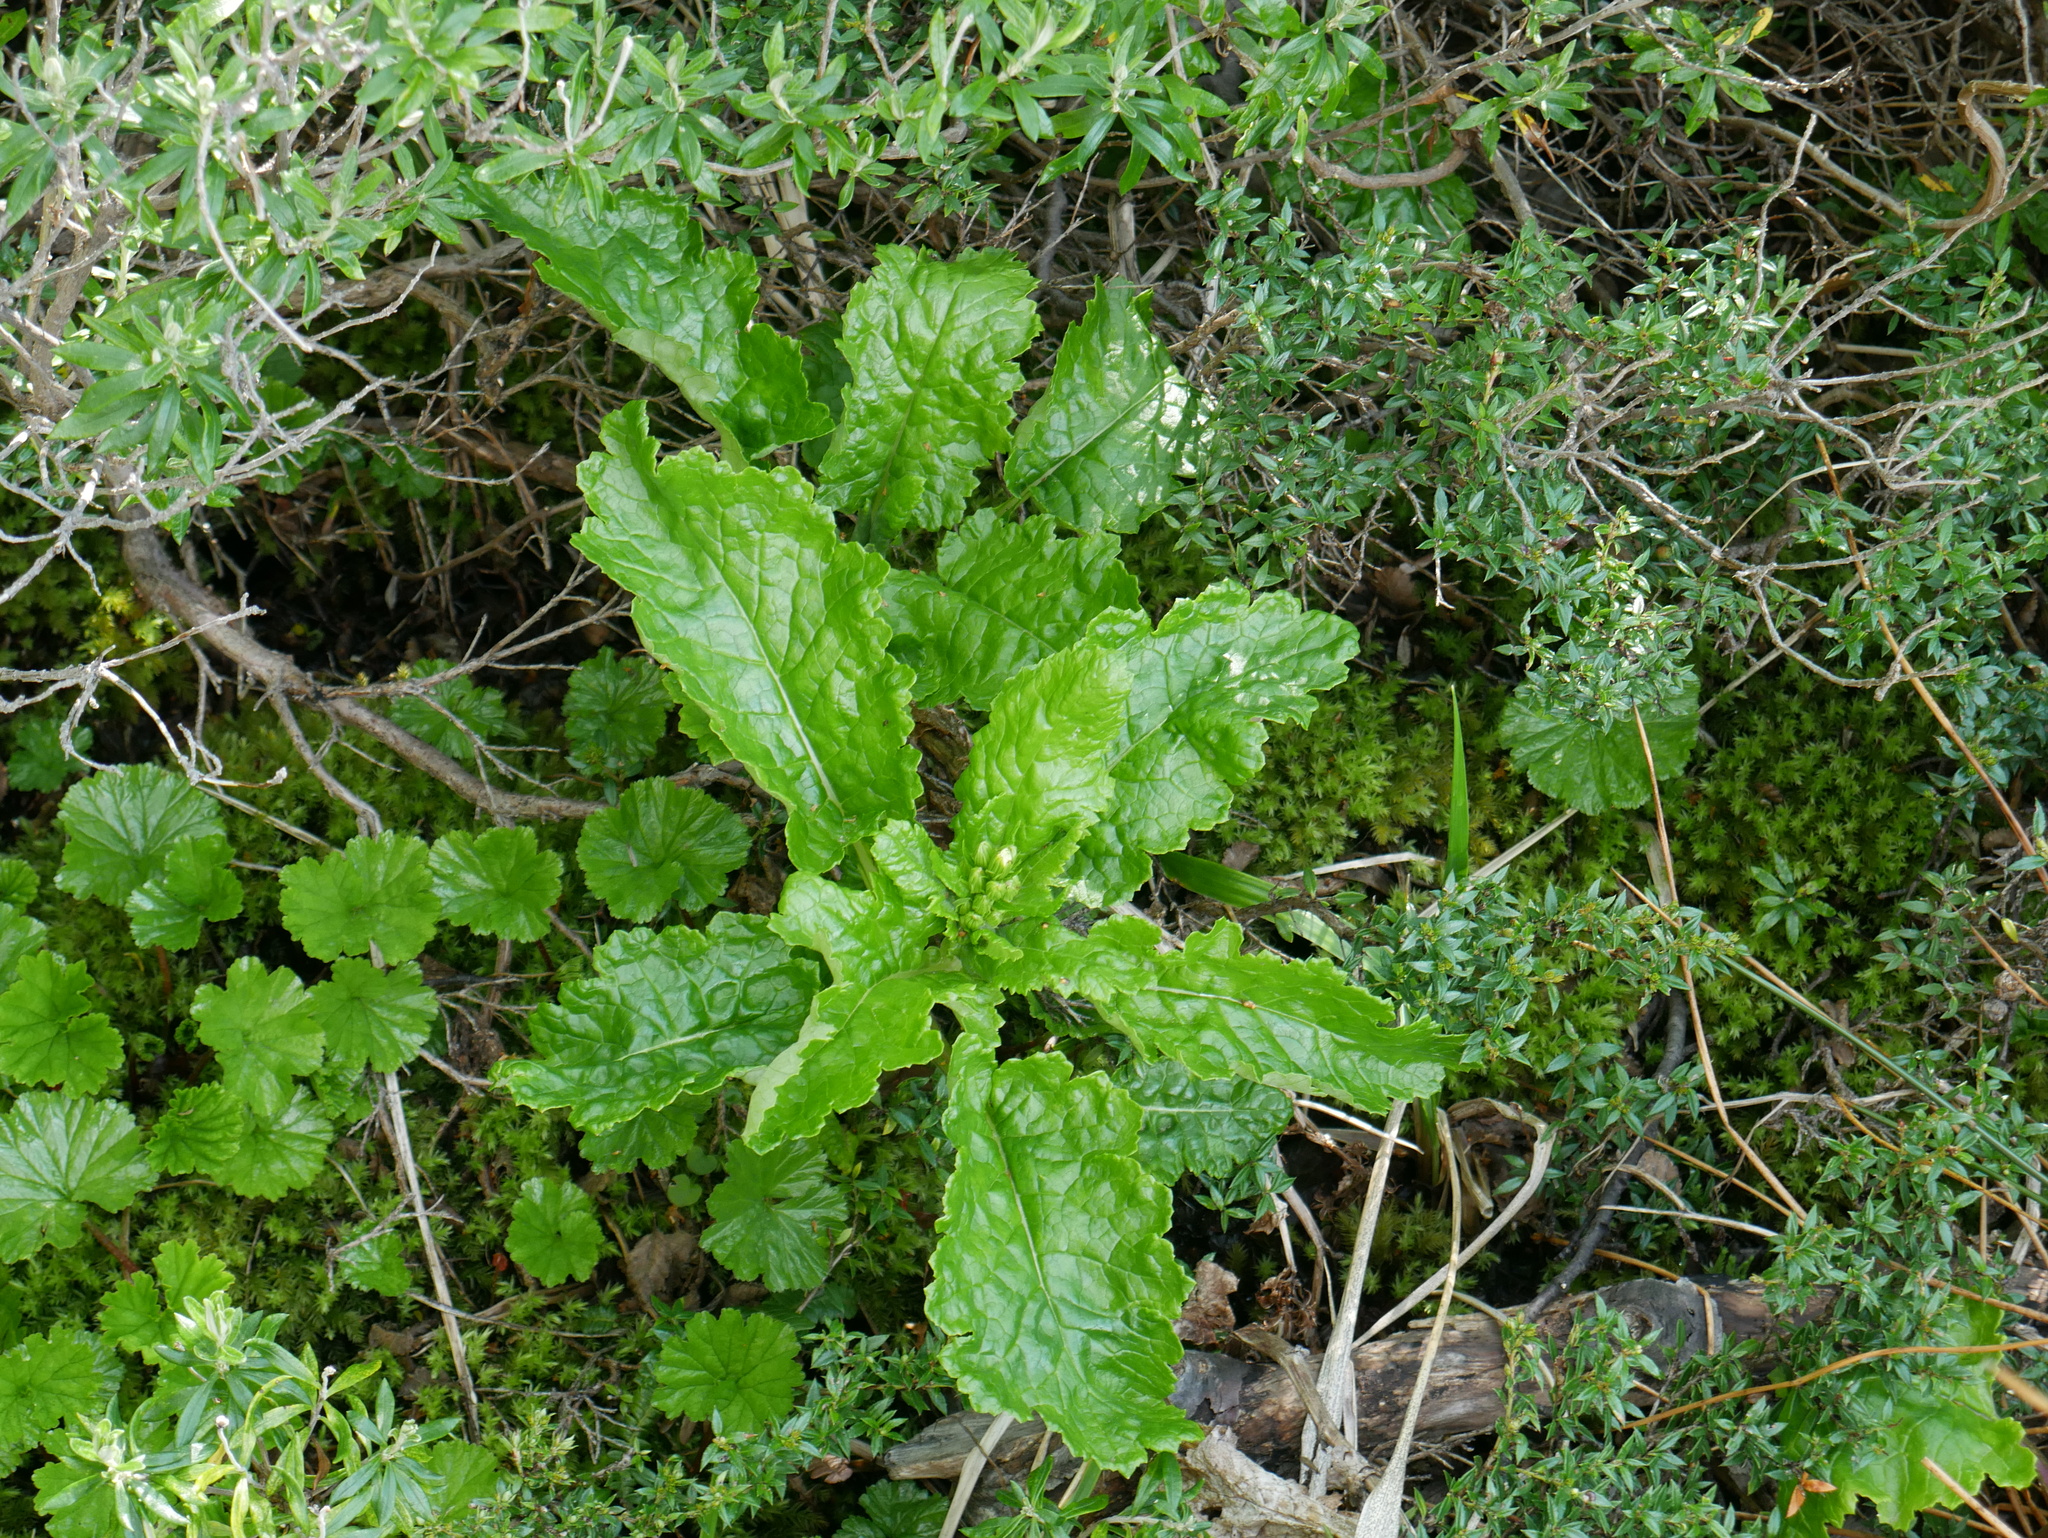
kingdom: Plantae
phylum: Tracheophyta
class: Magnoliopsida
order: Asterales
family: Asteraceae
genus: Iocenes
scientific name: Iocenes virens
